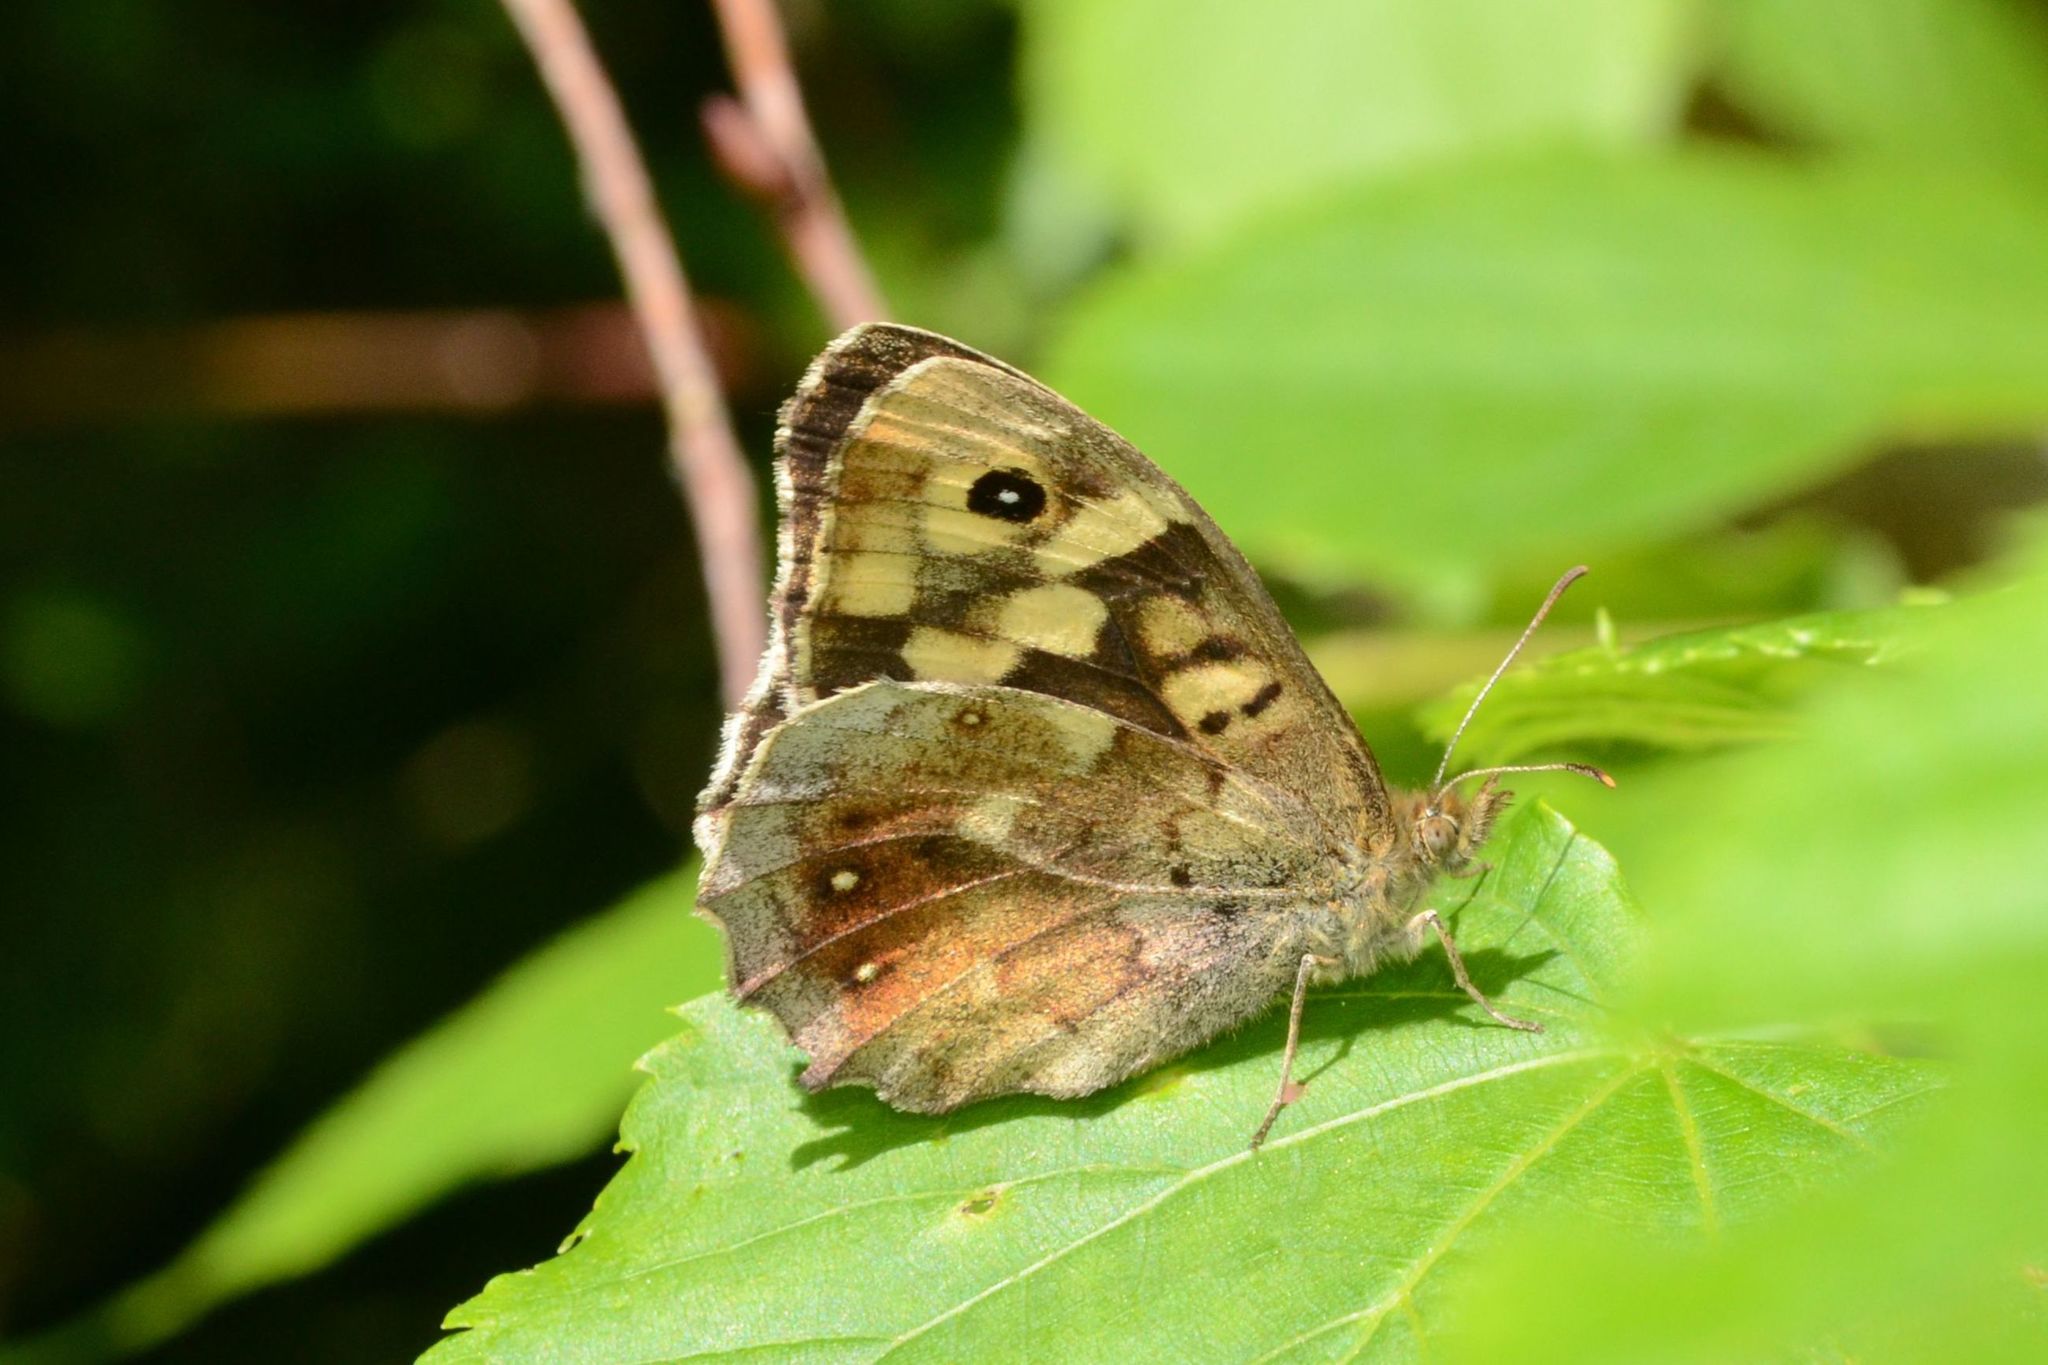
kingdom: Animalia
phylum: Arthropoda
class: Insecta
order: Lepidoptera
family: Nymphalidae
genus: Pararge
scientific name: Pararge aegeria
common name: Speckled wood
